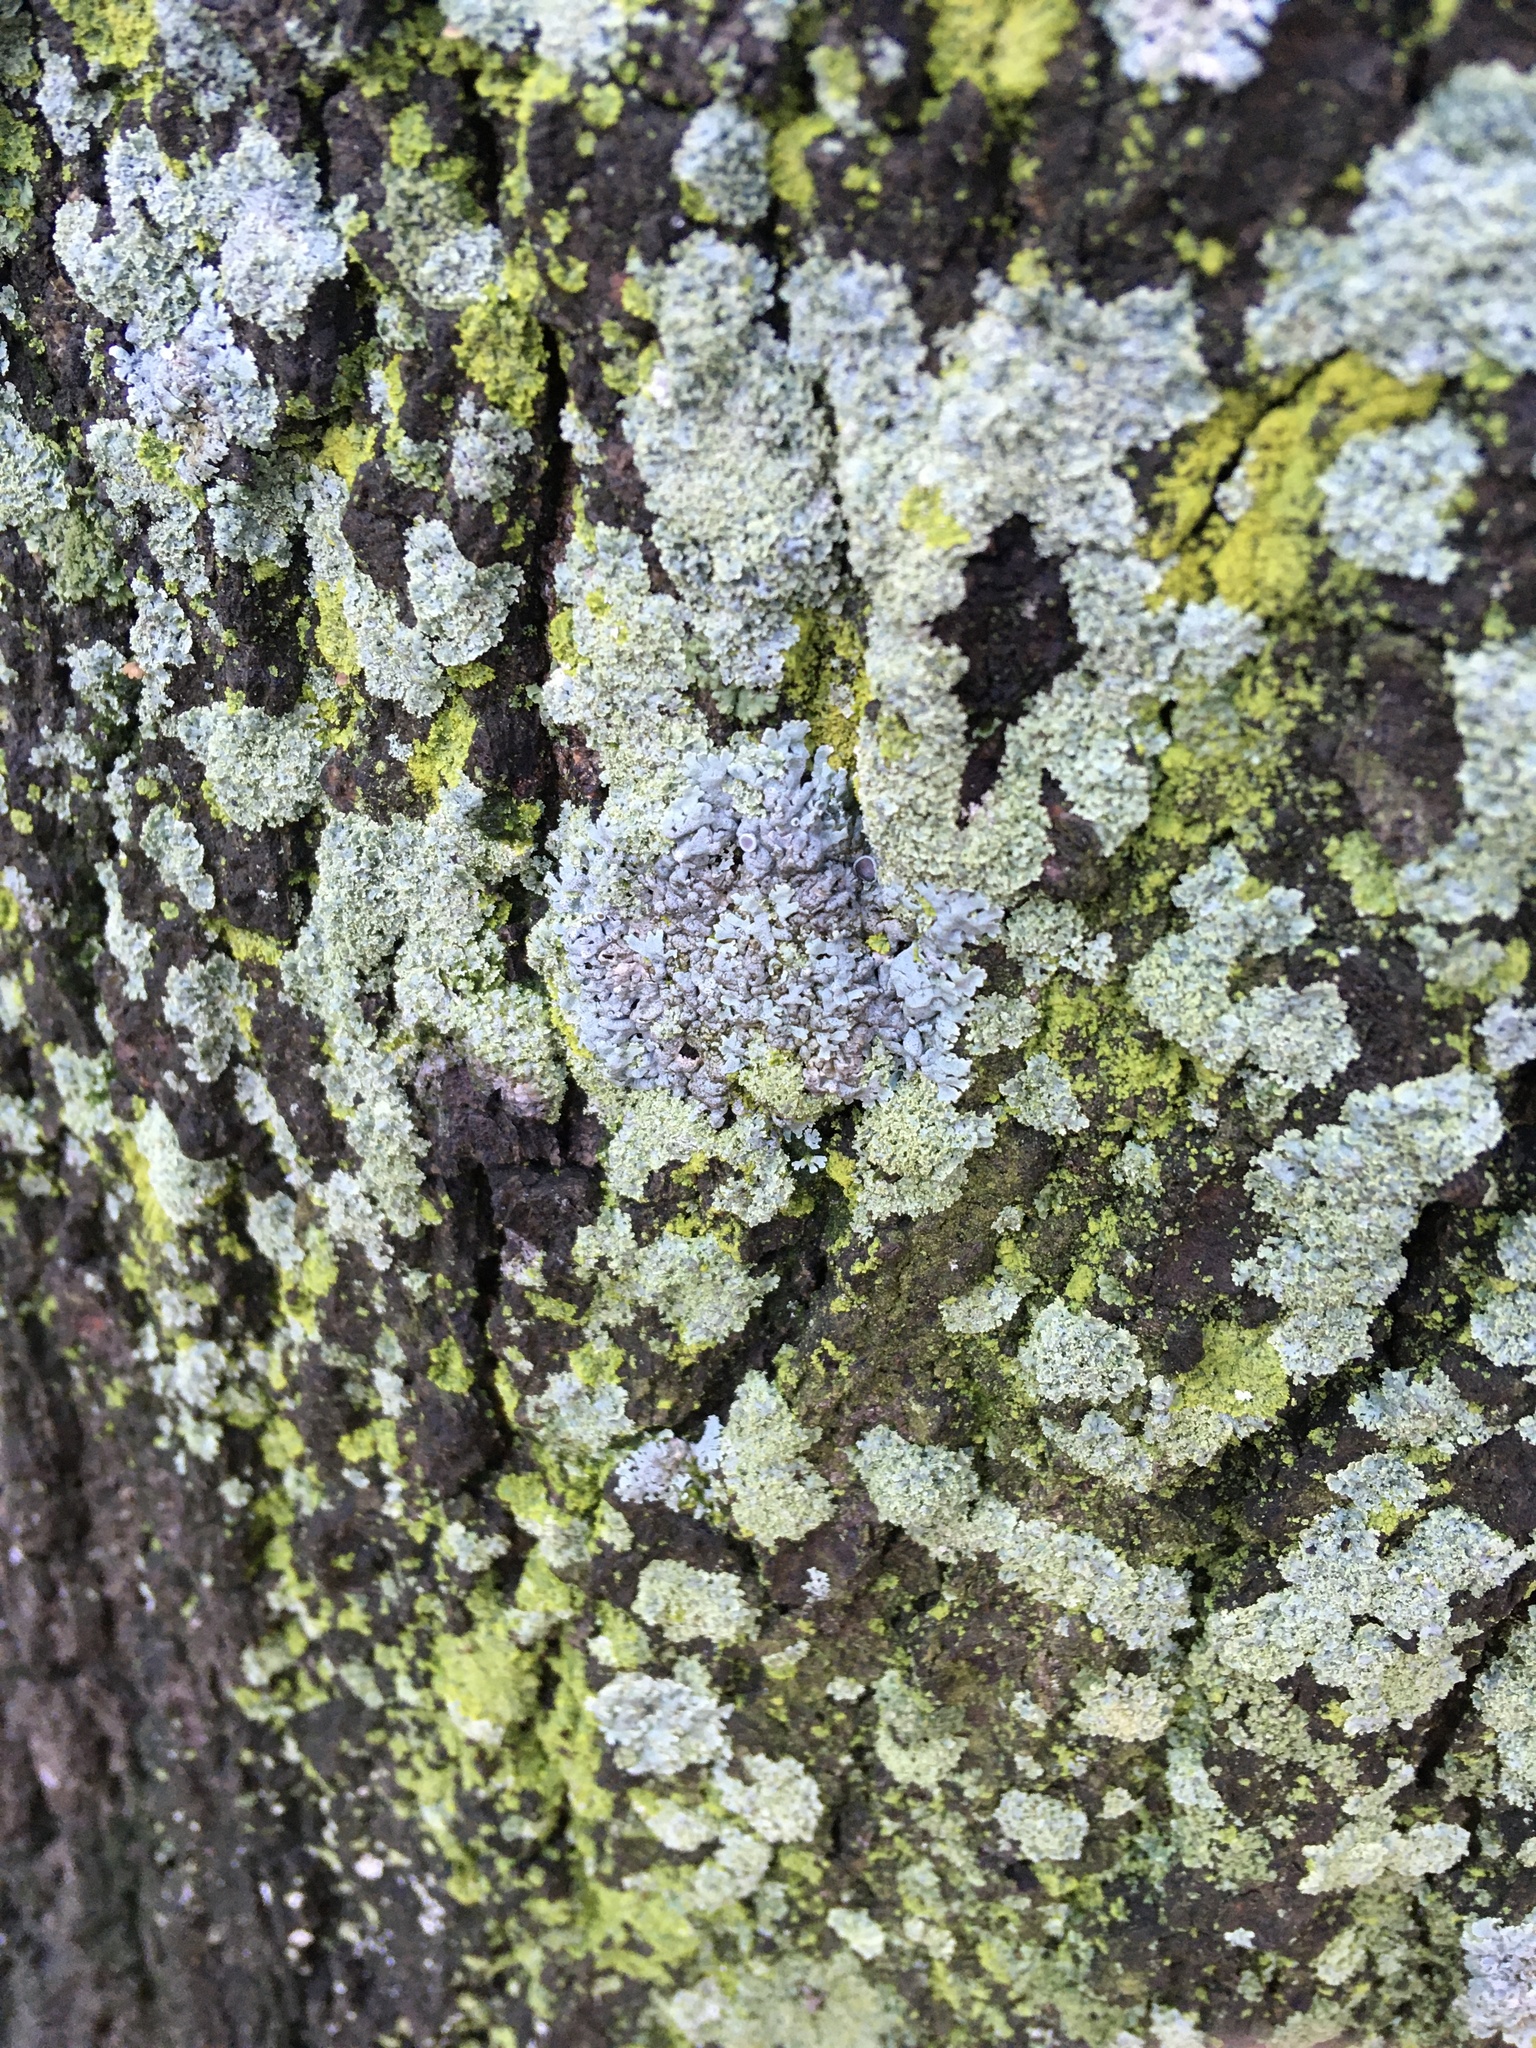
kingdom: Fungi
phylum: Ascomycota
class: Lecanoromycetes
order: Caliciales
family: Physciaceae
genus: Physcia
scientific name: Physcia stellaris
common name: Star rosette lichen
